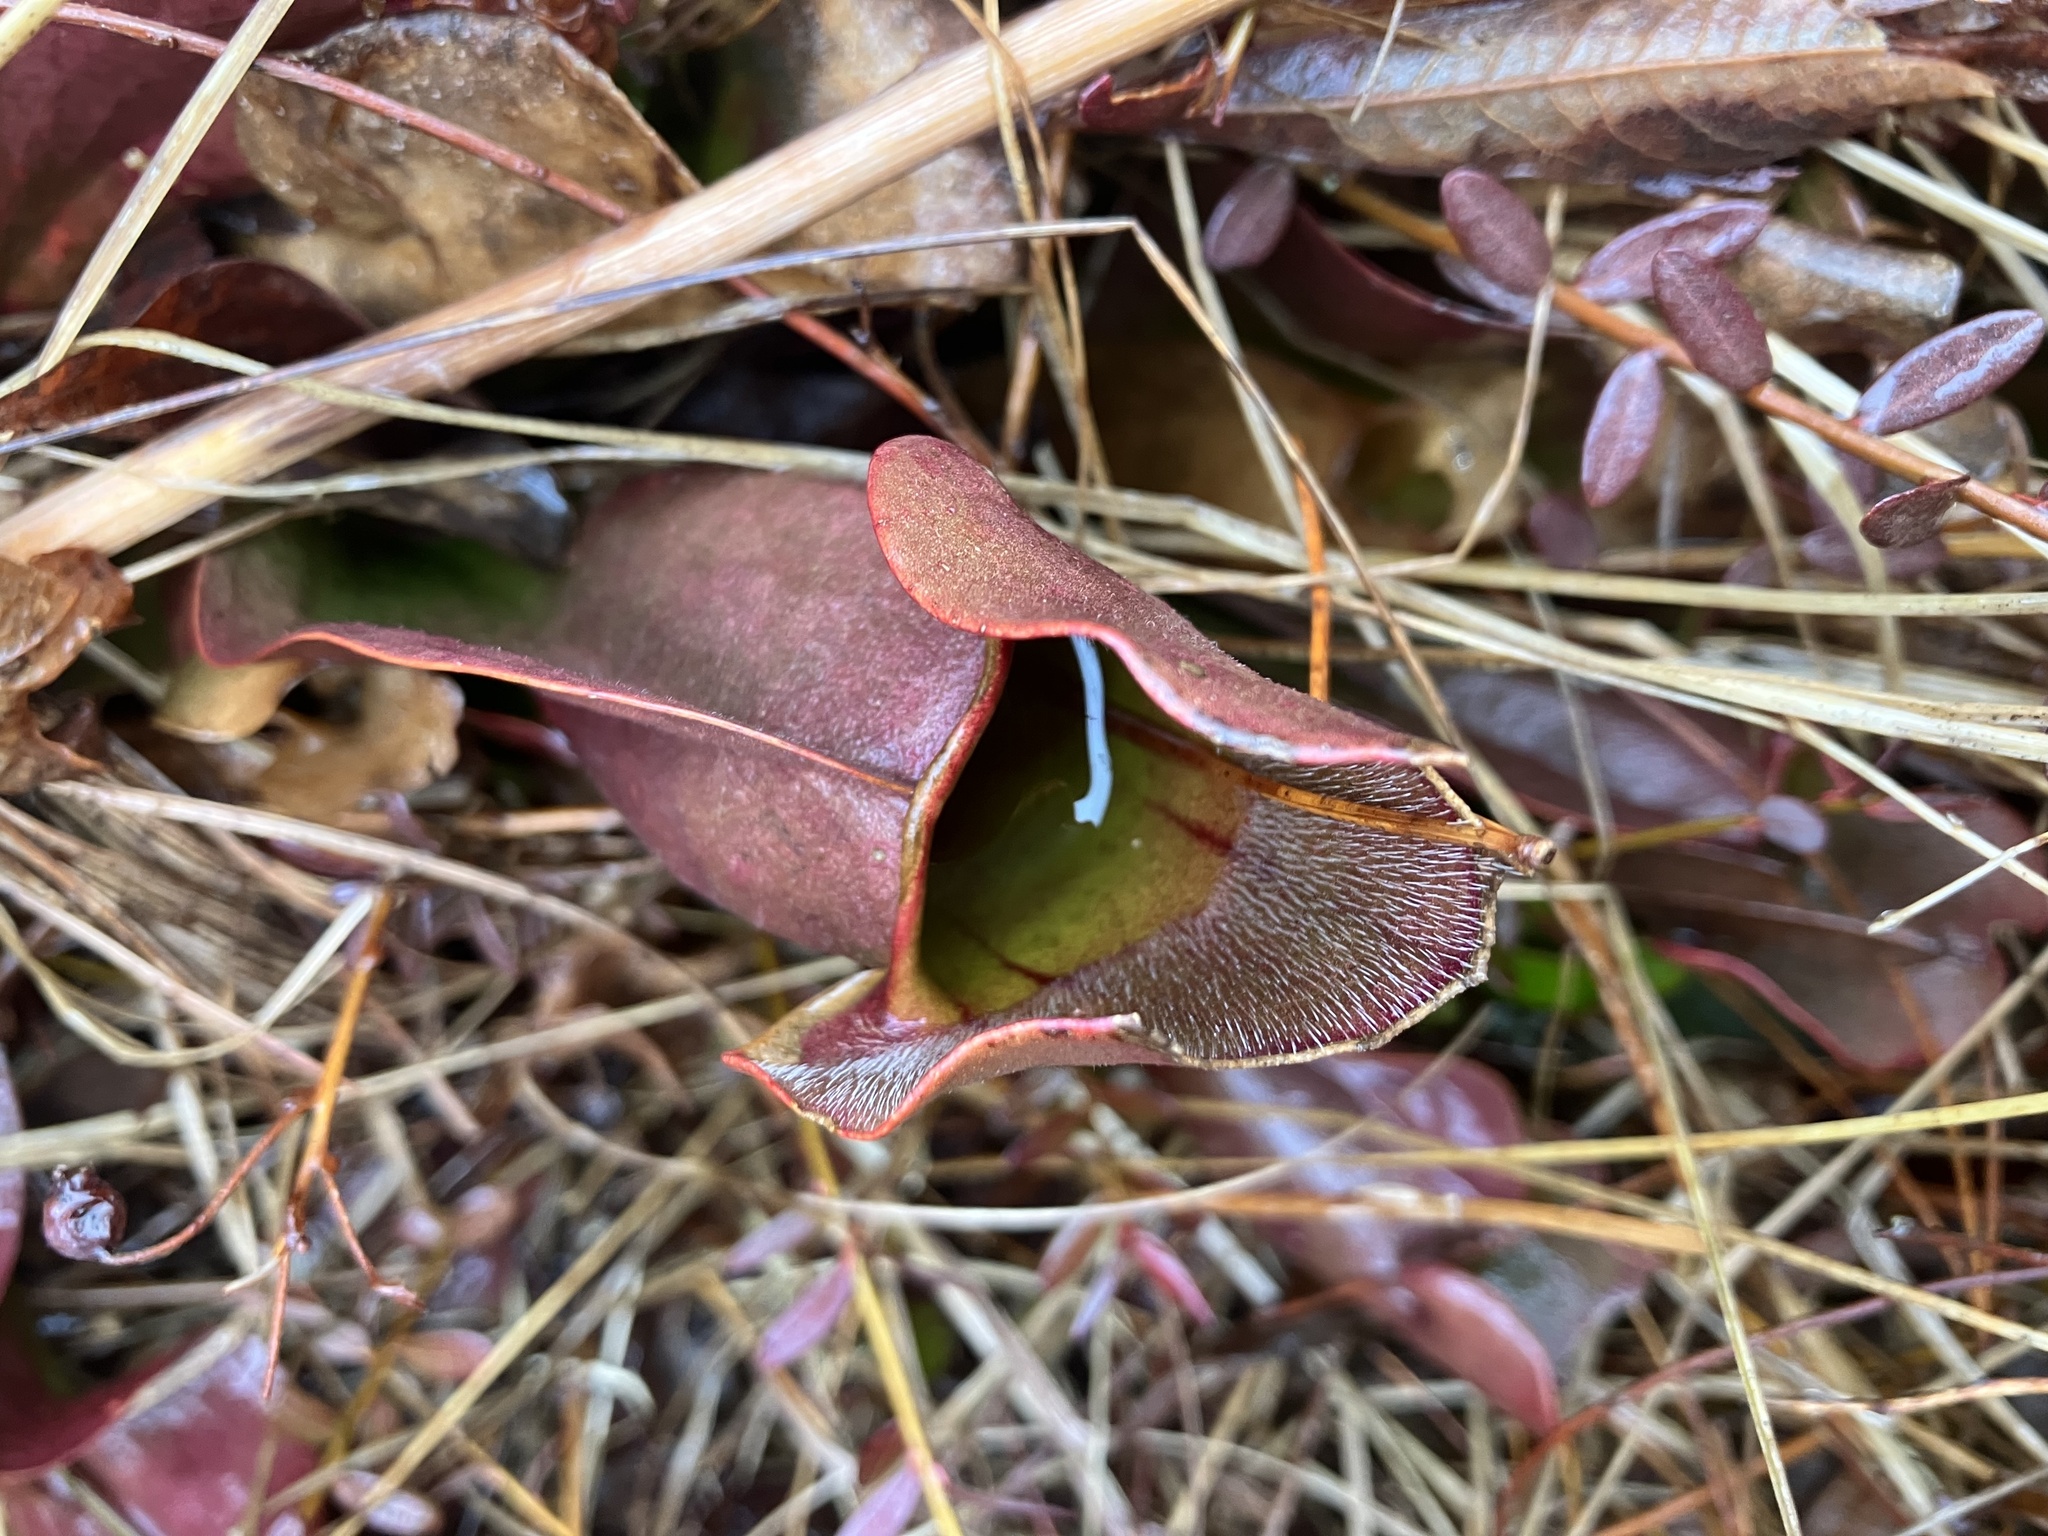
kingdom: Plantae
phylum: Tracheophyta
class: Magnoliopsida
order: Ericales
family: Sarraceniaceae
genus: Sarracenia
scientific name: Sarracenia purpurea
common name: Pitcherplant
